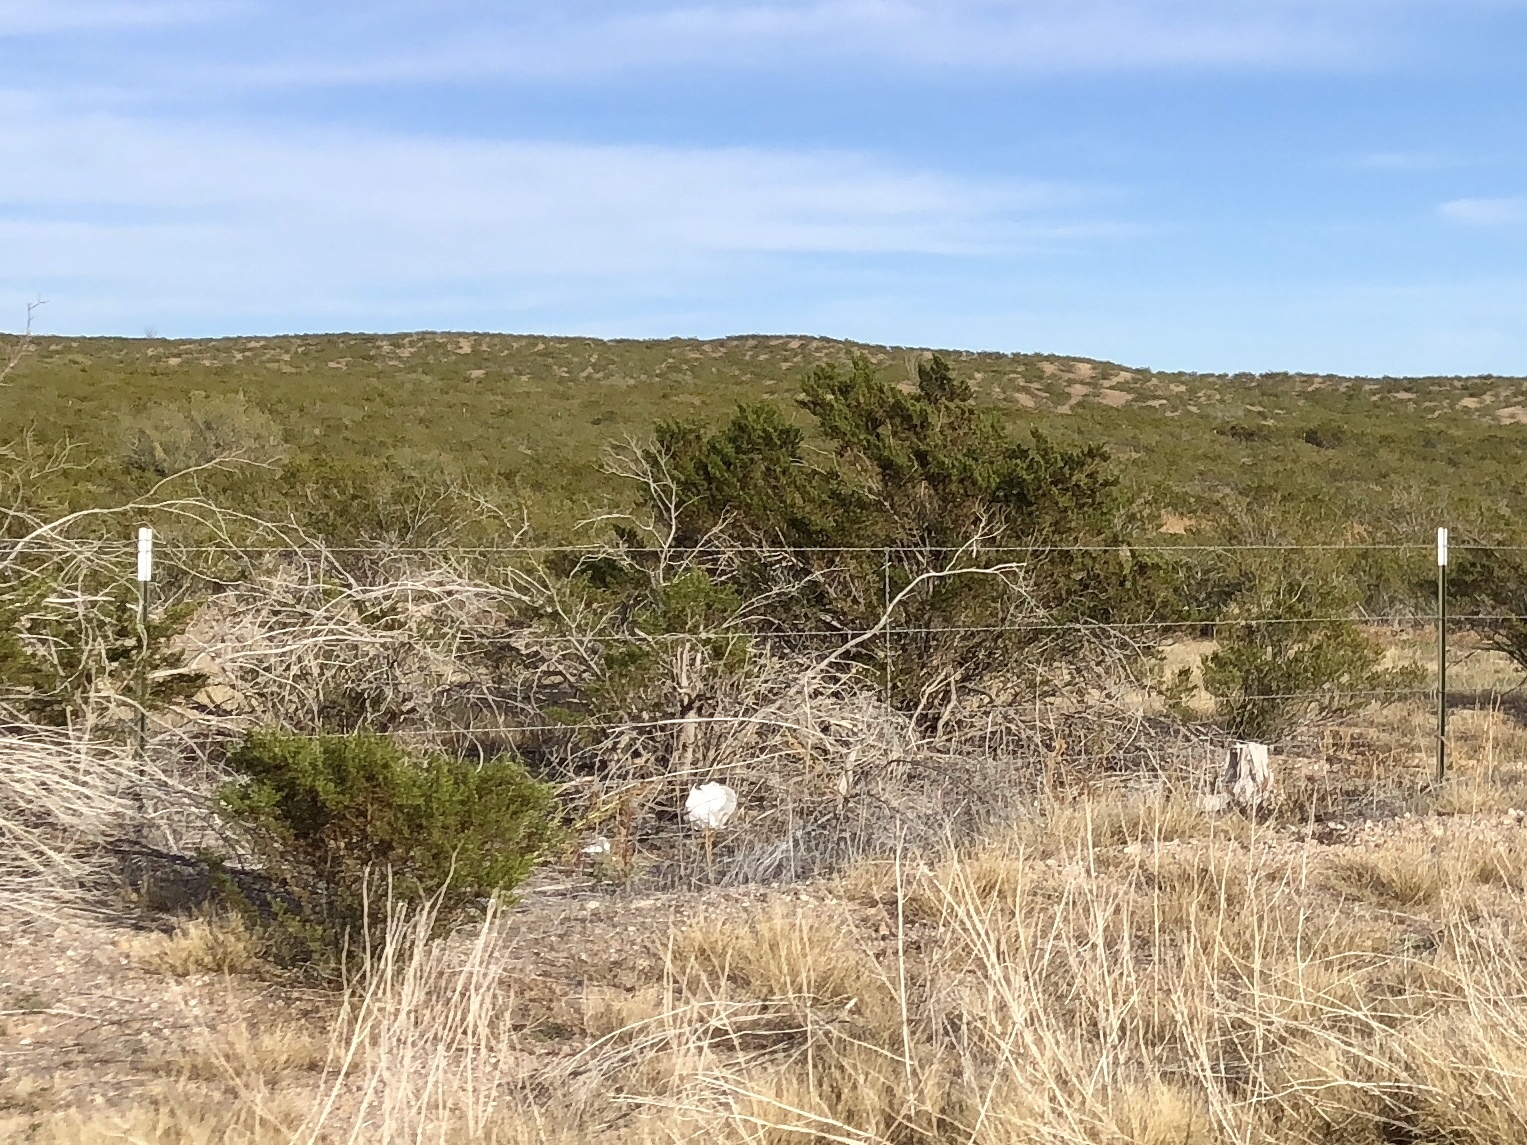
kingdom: Plantae
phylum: Tracheophyta
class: Magnoliopsida
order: Zygophyllales
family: Zygophyllaceae
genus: Larrea
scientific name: Larrea tridentata
